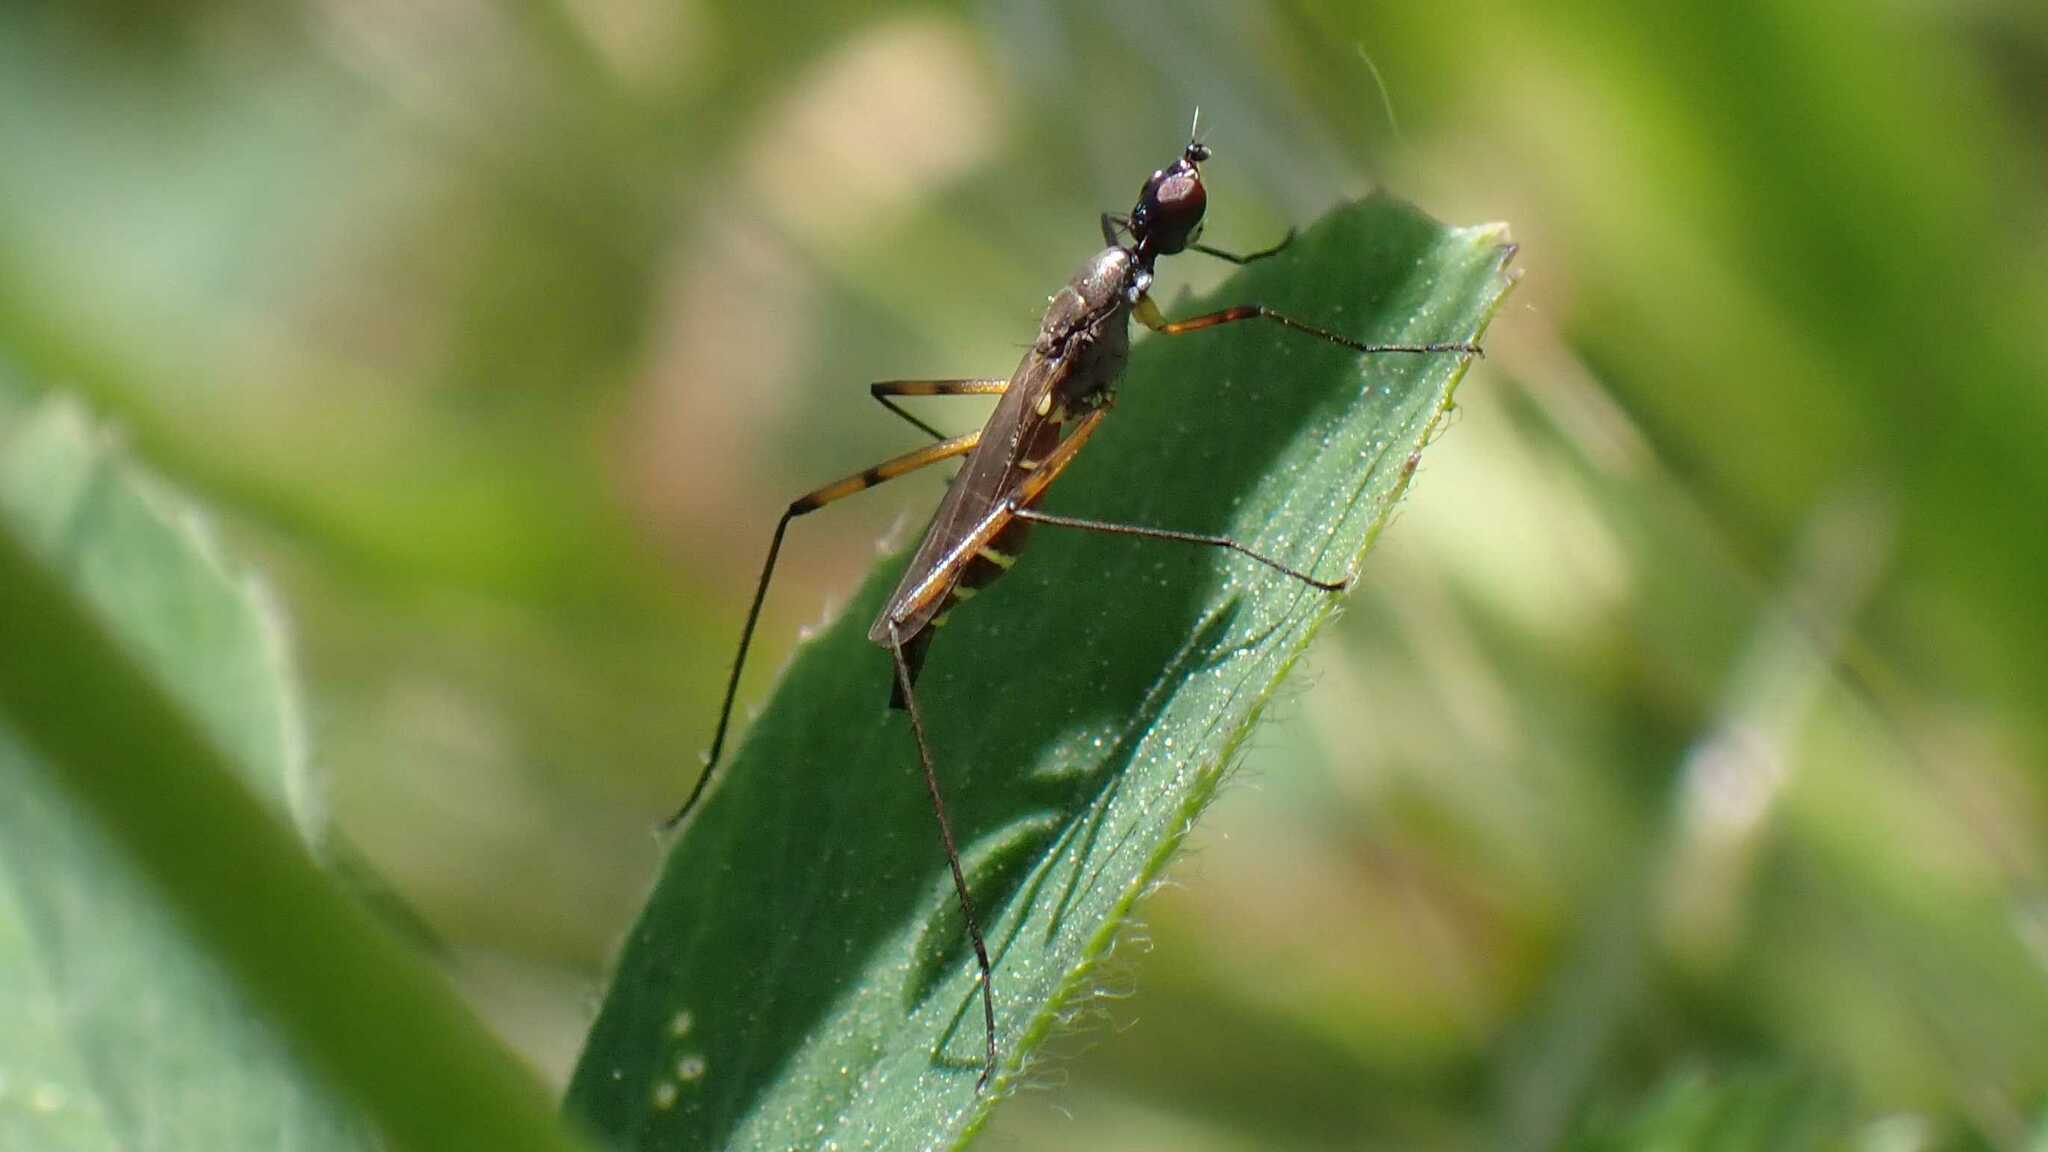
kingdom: Animalia
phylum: Arthropoda
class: Insecta
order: Diptera
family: Micropezidae
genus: Micropeza
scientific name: Micropeza corrigiolata
